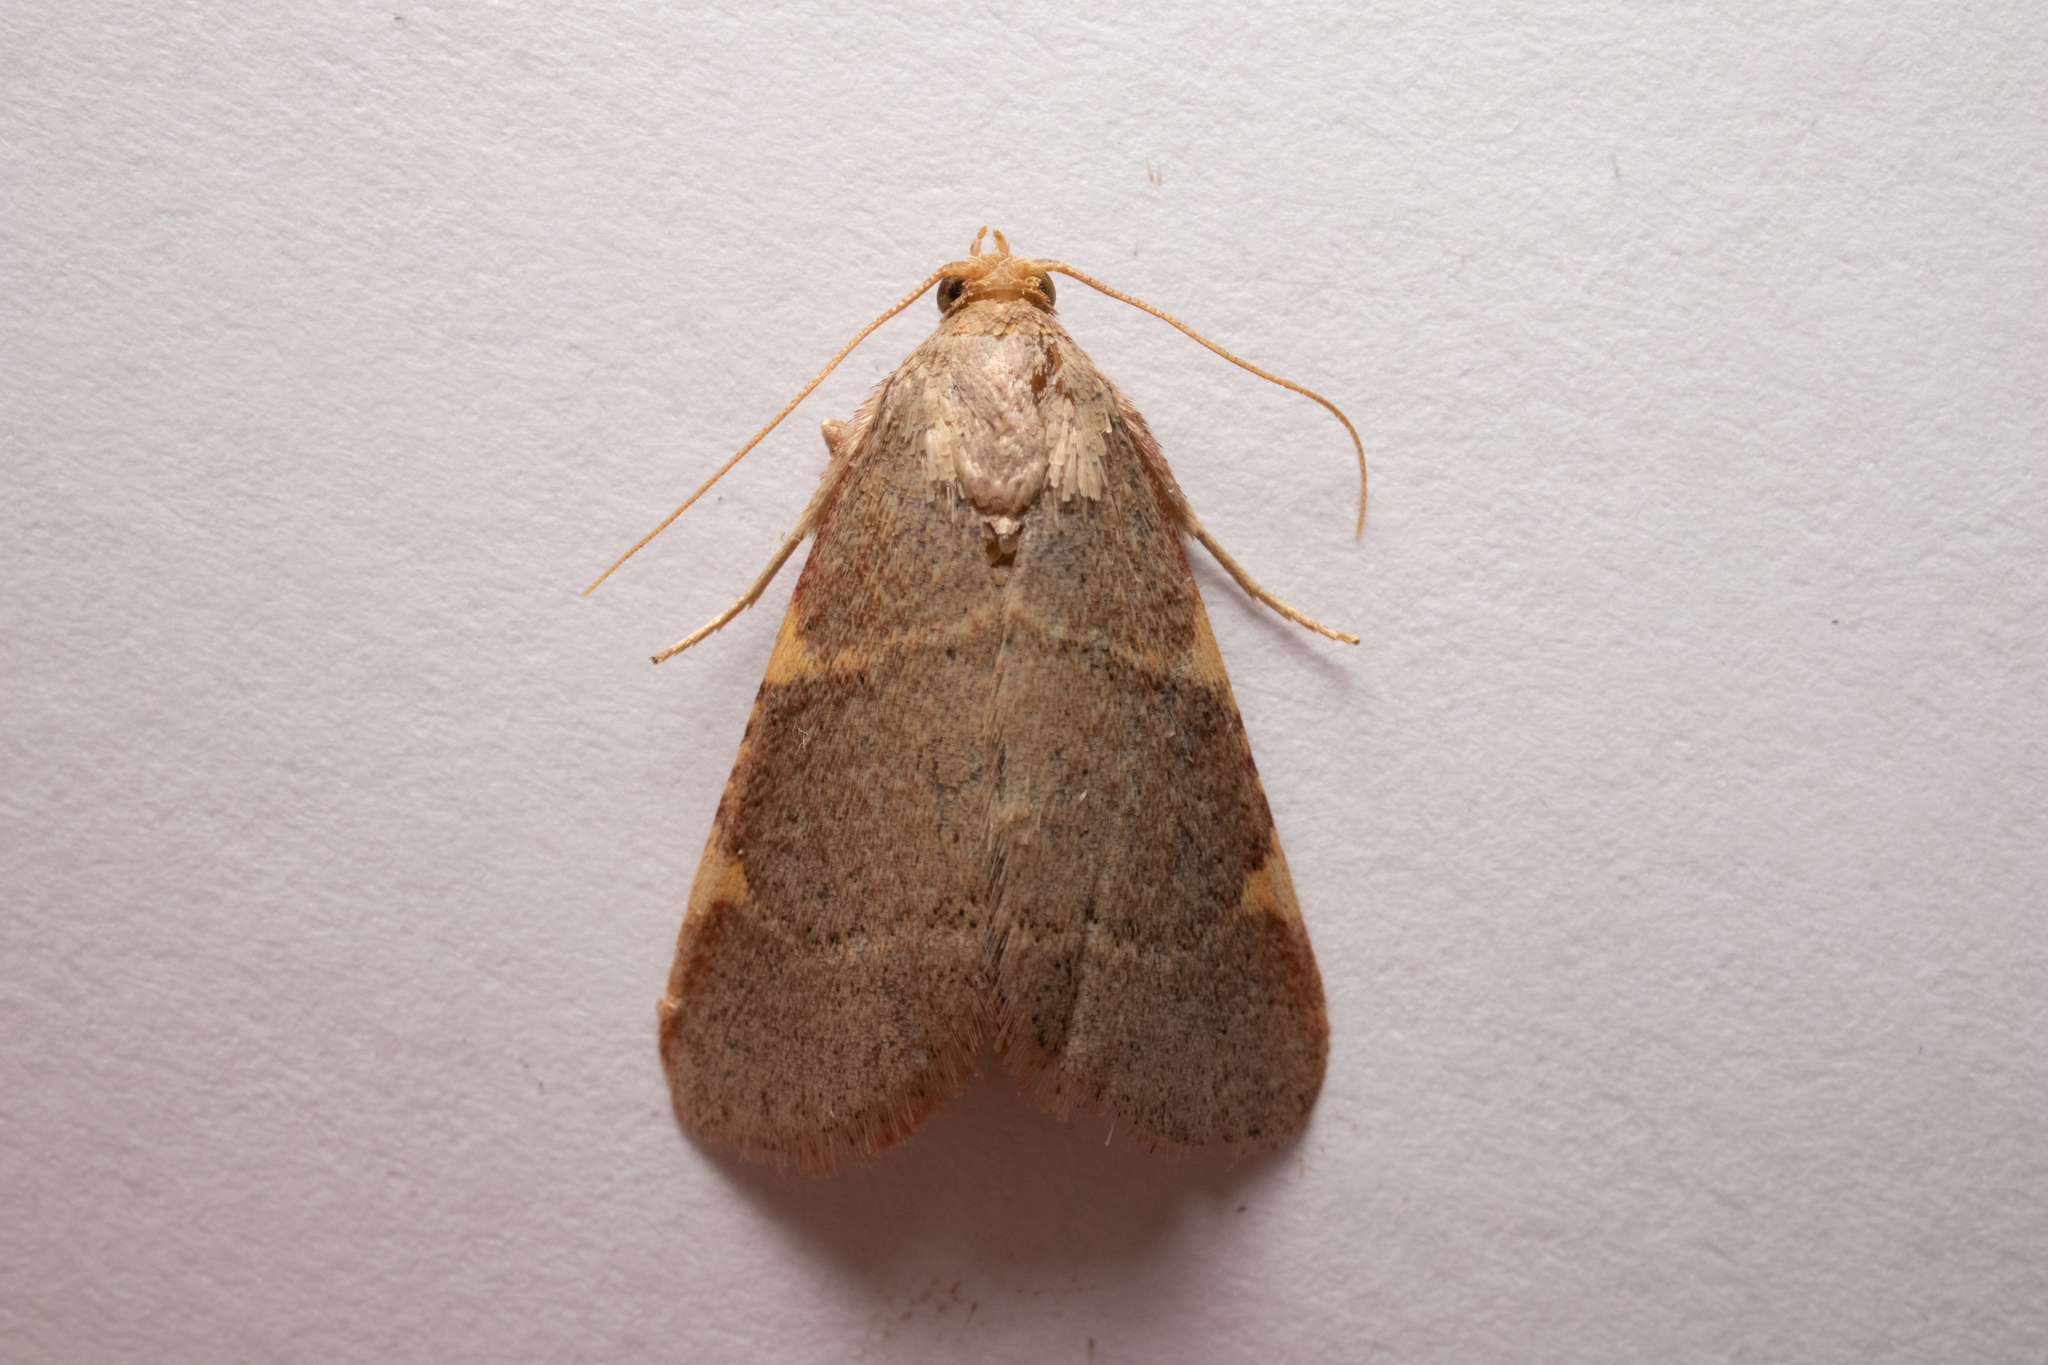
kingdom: Animalia
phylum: Arthropoda
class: Insecta
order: Lepidoptera
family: Pyralidae
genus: Hypsopygia
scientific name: Hypsopygia binodulalis
